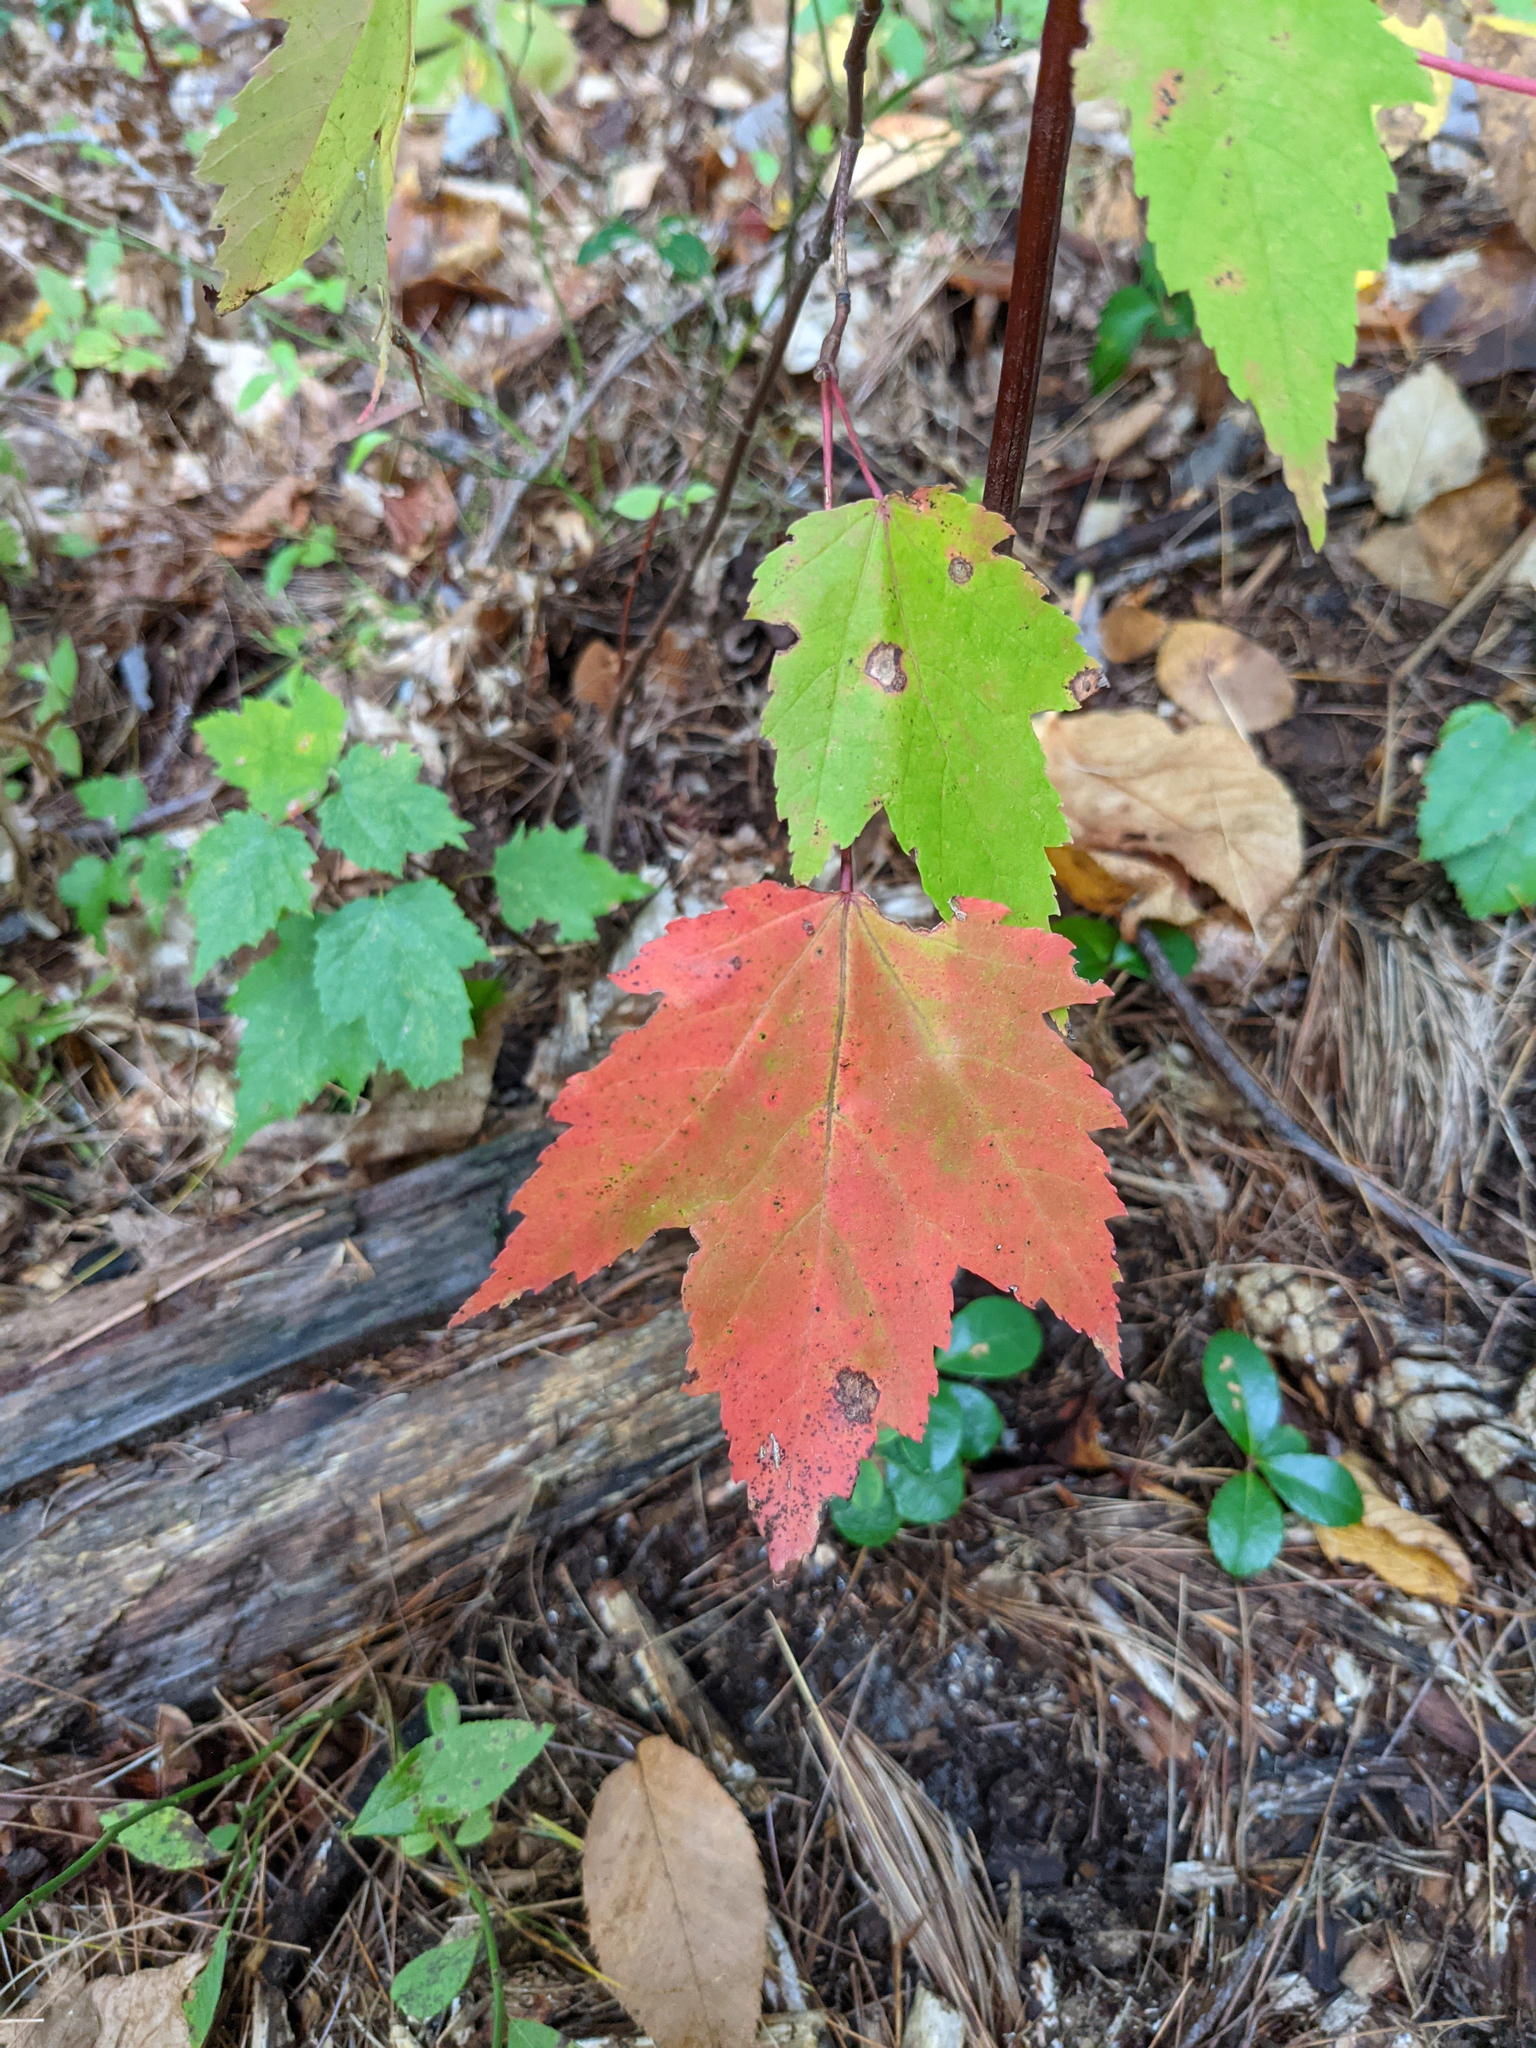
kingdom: Plantae
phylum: Tracheophyta
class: Magnoliopsida
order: Sapindales
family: Sapindaceae
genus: Acer
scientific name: Acer rubrum
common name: Red maple
